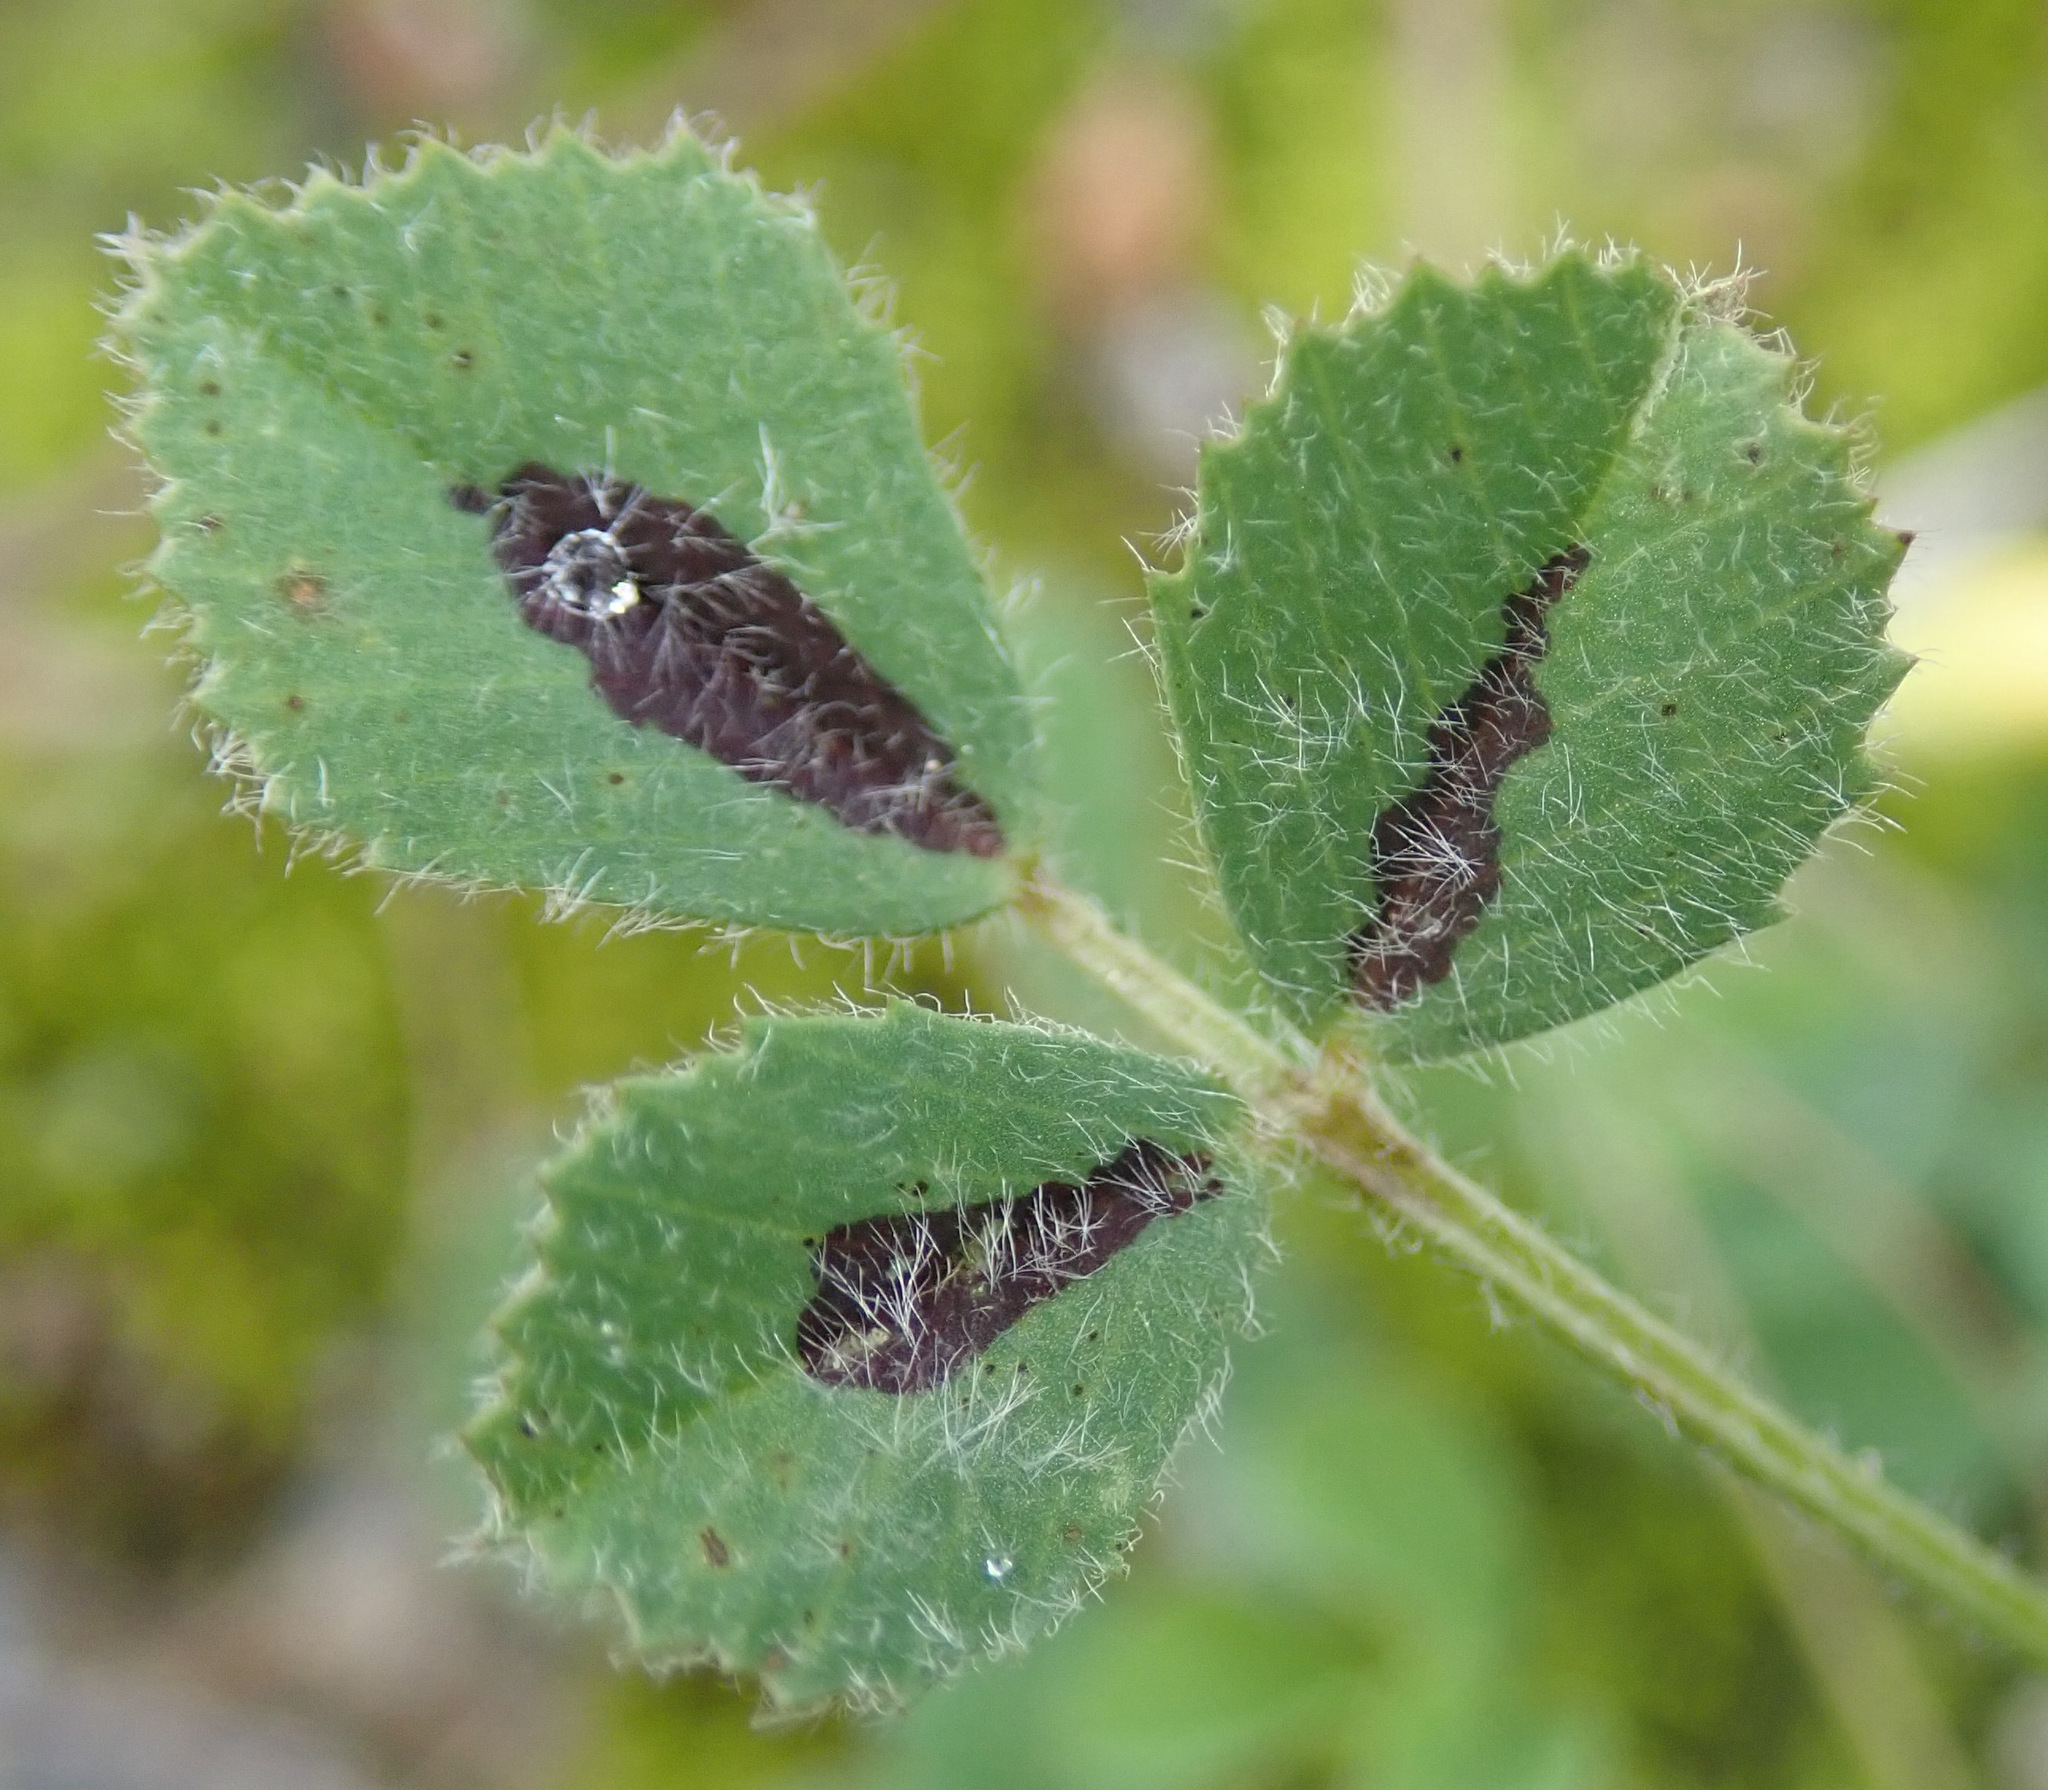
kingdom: Plantae
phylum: Tracheophyta
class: Magnoliopsida
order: Fabales
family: Fabaceae
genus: Medicago
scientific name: Medicago truncatula
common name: Strong-spined medick
